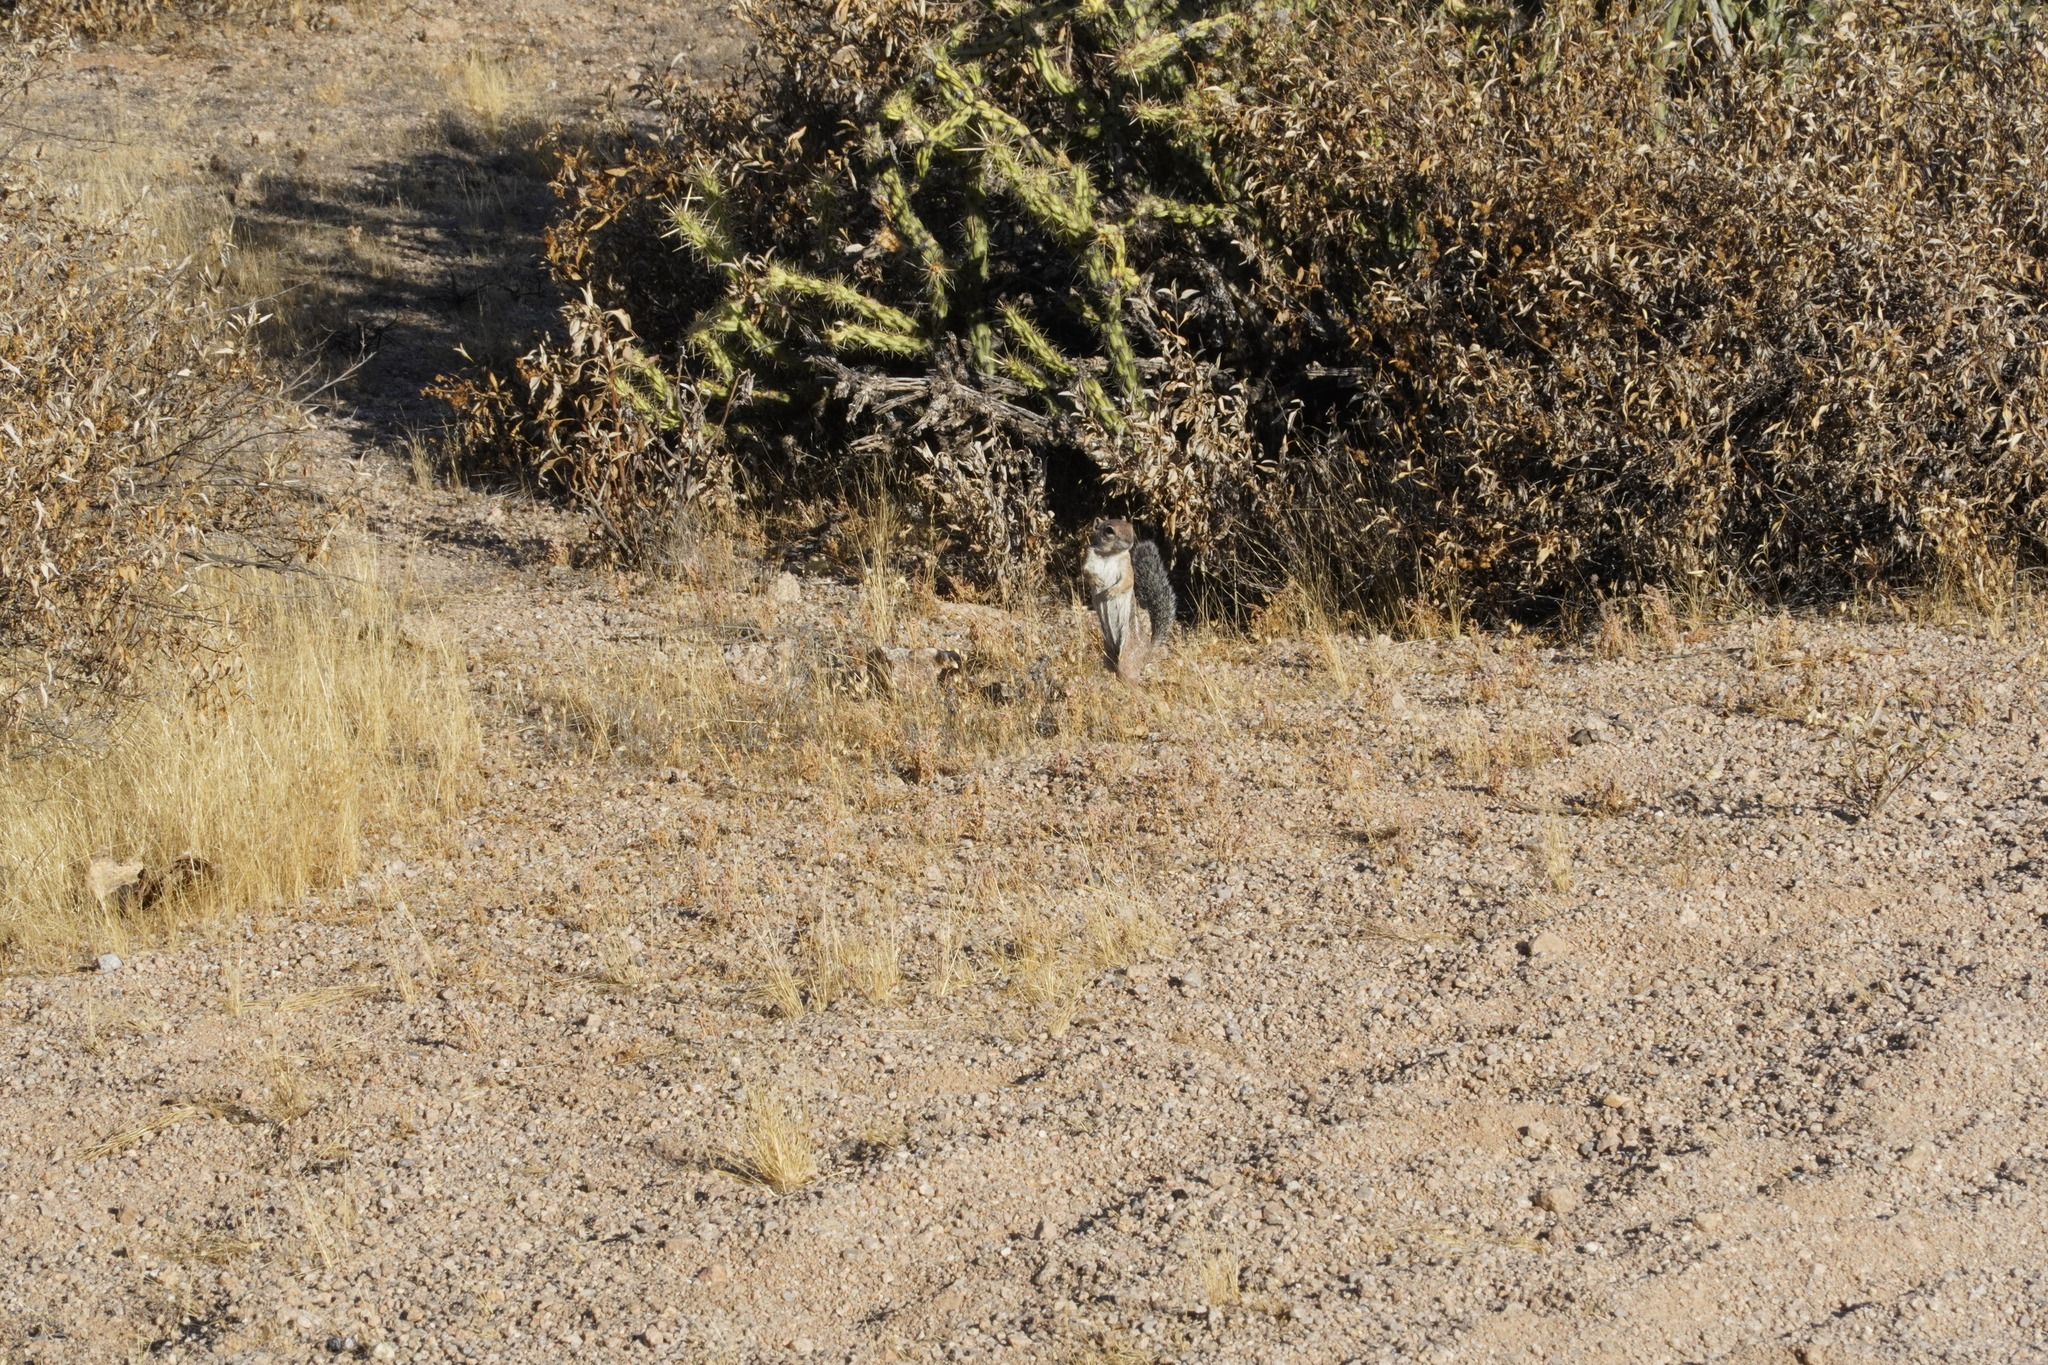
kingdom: Animalia
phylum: Chordata
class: Mammalia
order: Rodentia
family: Sciuridae
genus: Ammospermophilus
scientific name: Ammospermophilus harrisii
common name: Harris's antelope squirrel
